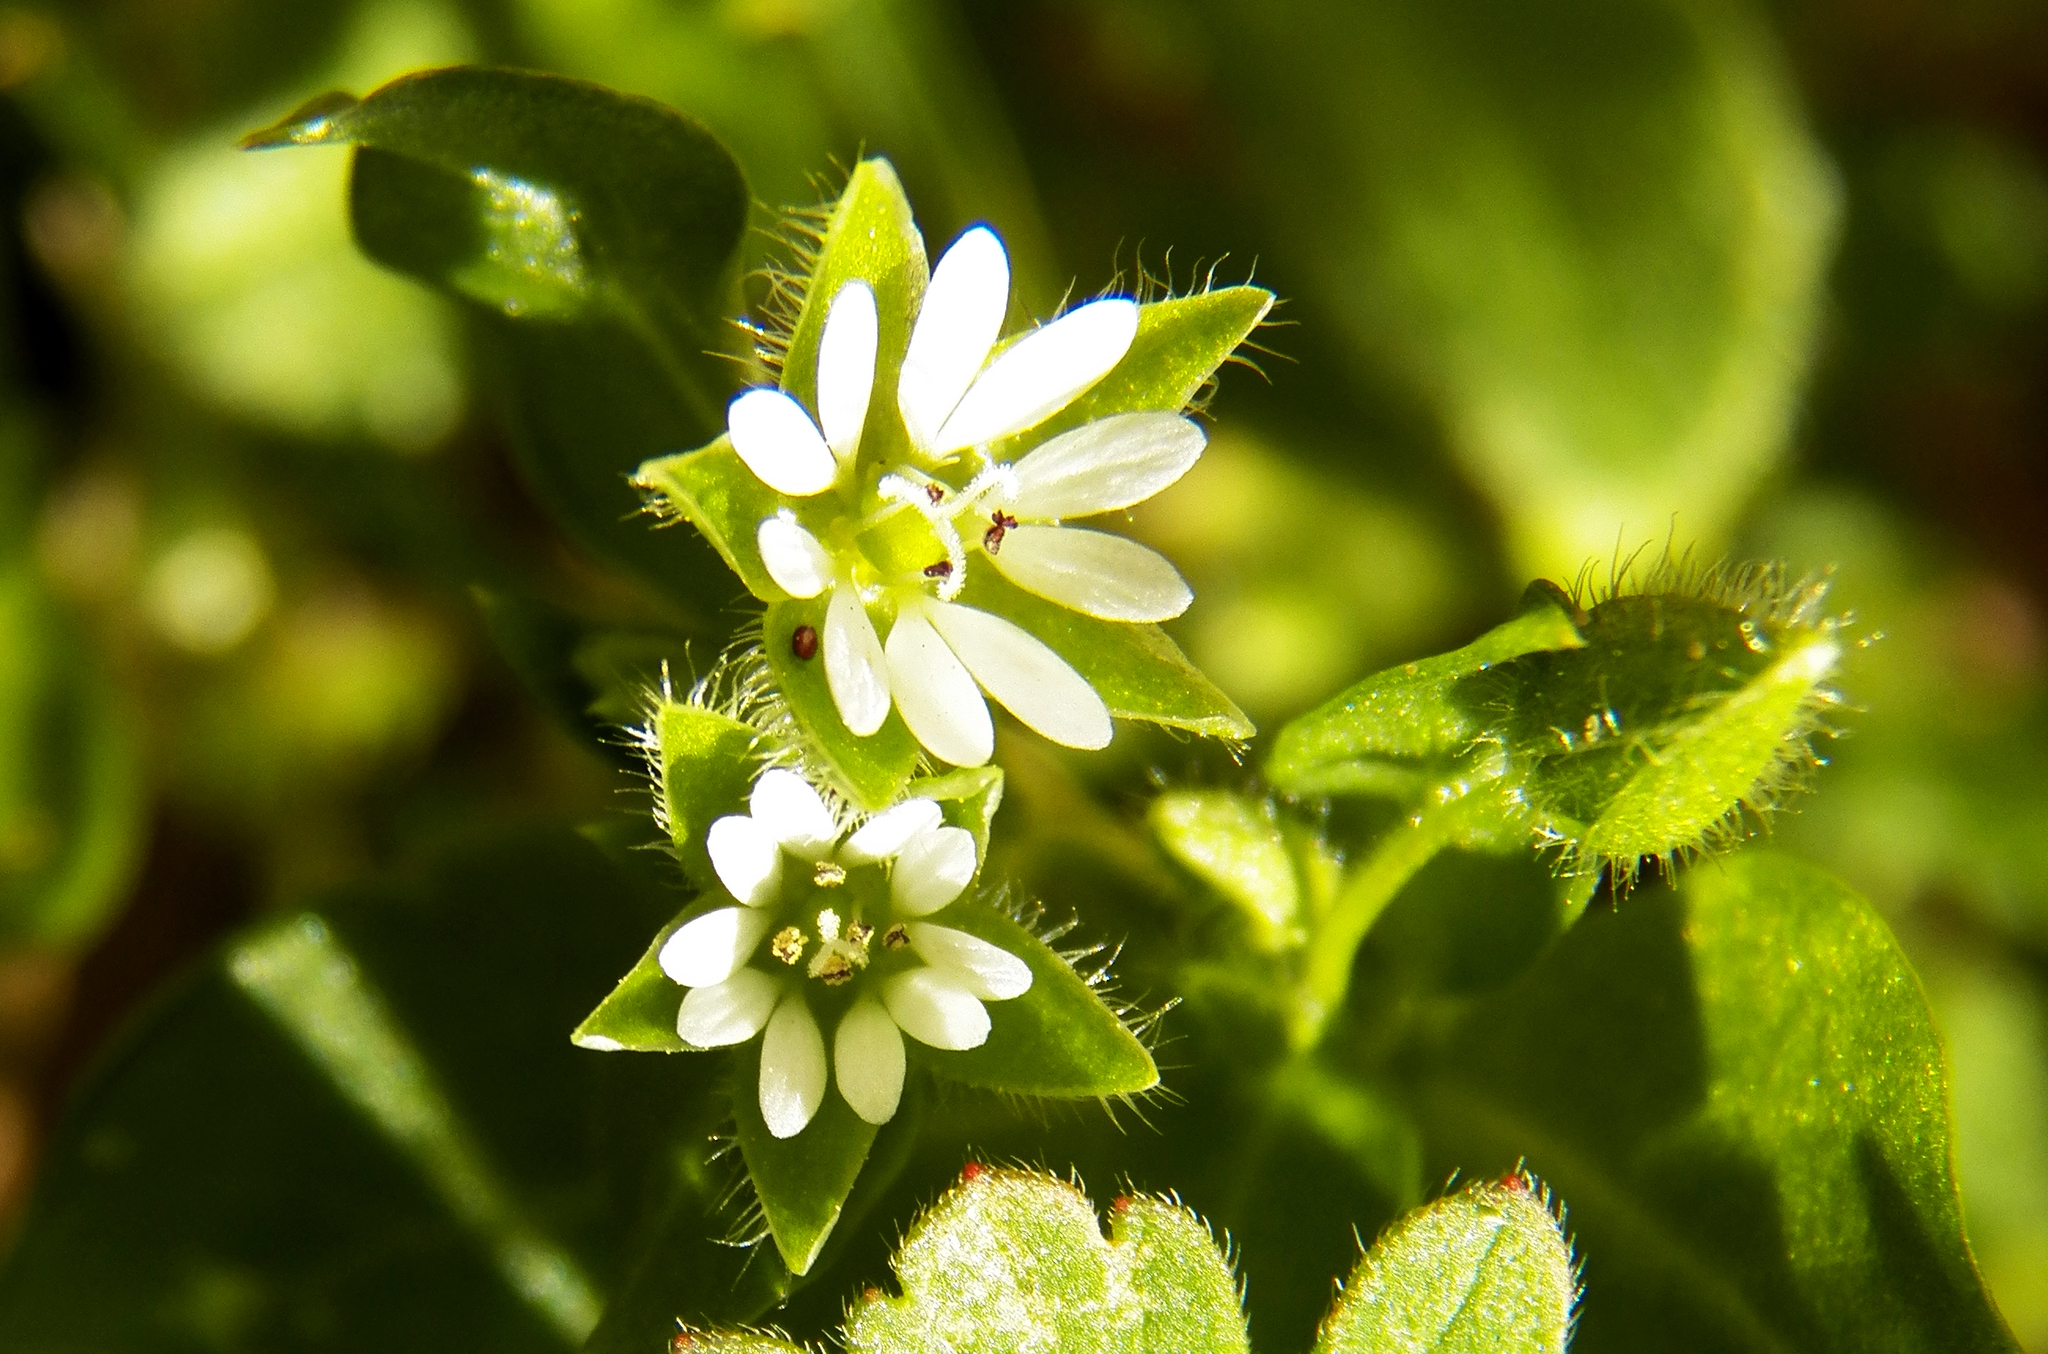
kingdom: Plantae
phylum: Tracheophyta
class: Magnoliopsida
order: Caryophyllales
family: Caryophyllaceae
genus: Stellaria
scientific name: Stellaria media
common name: Common chickweed
